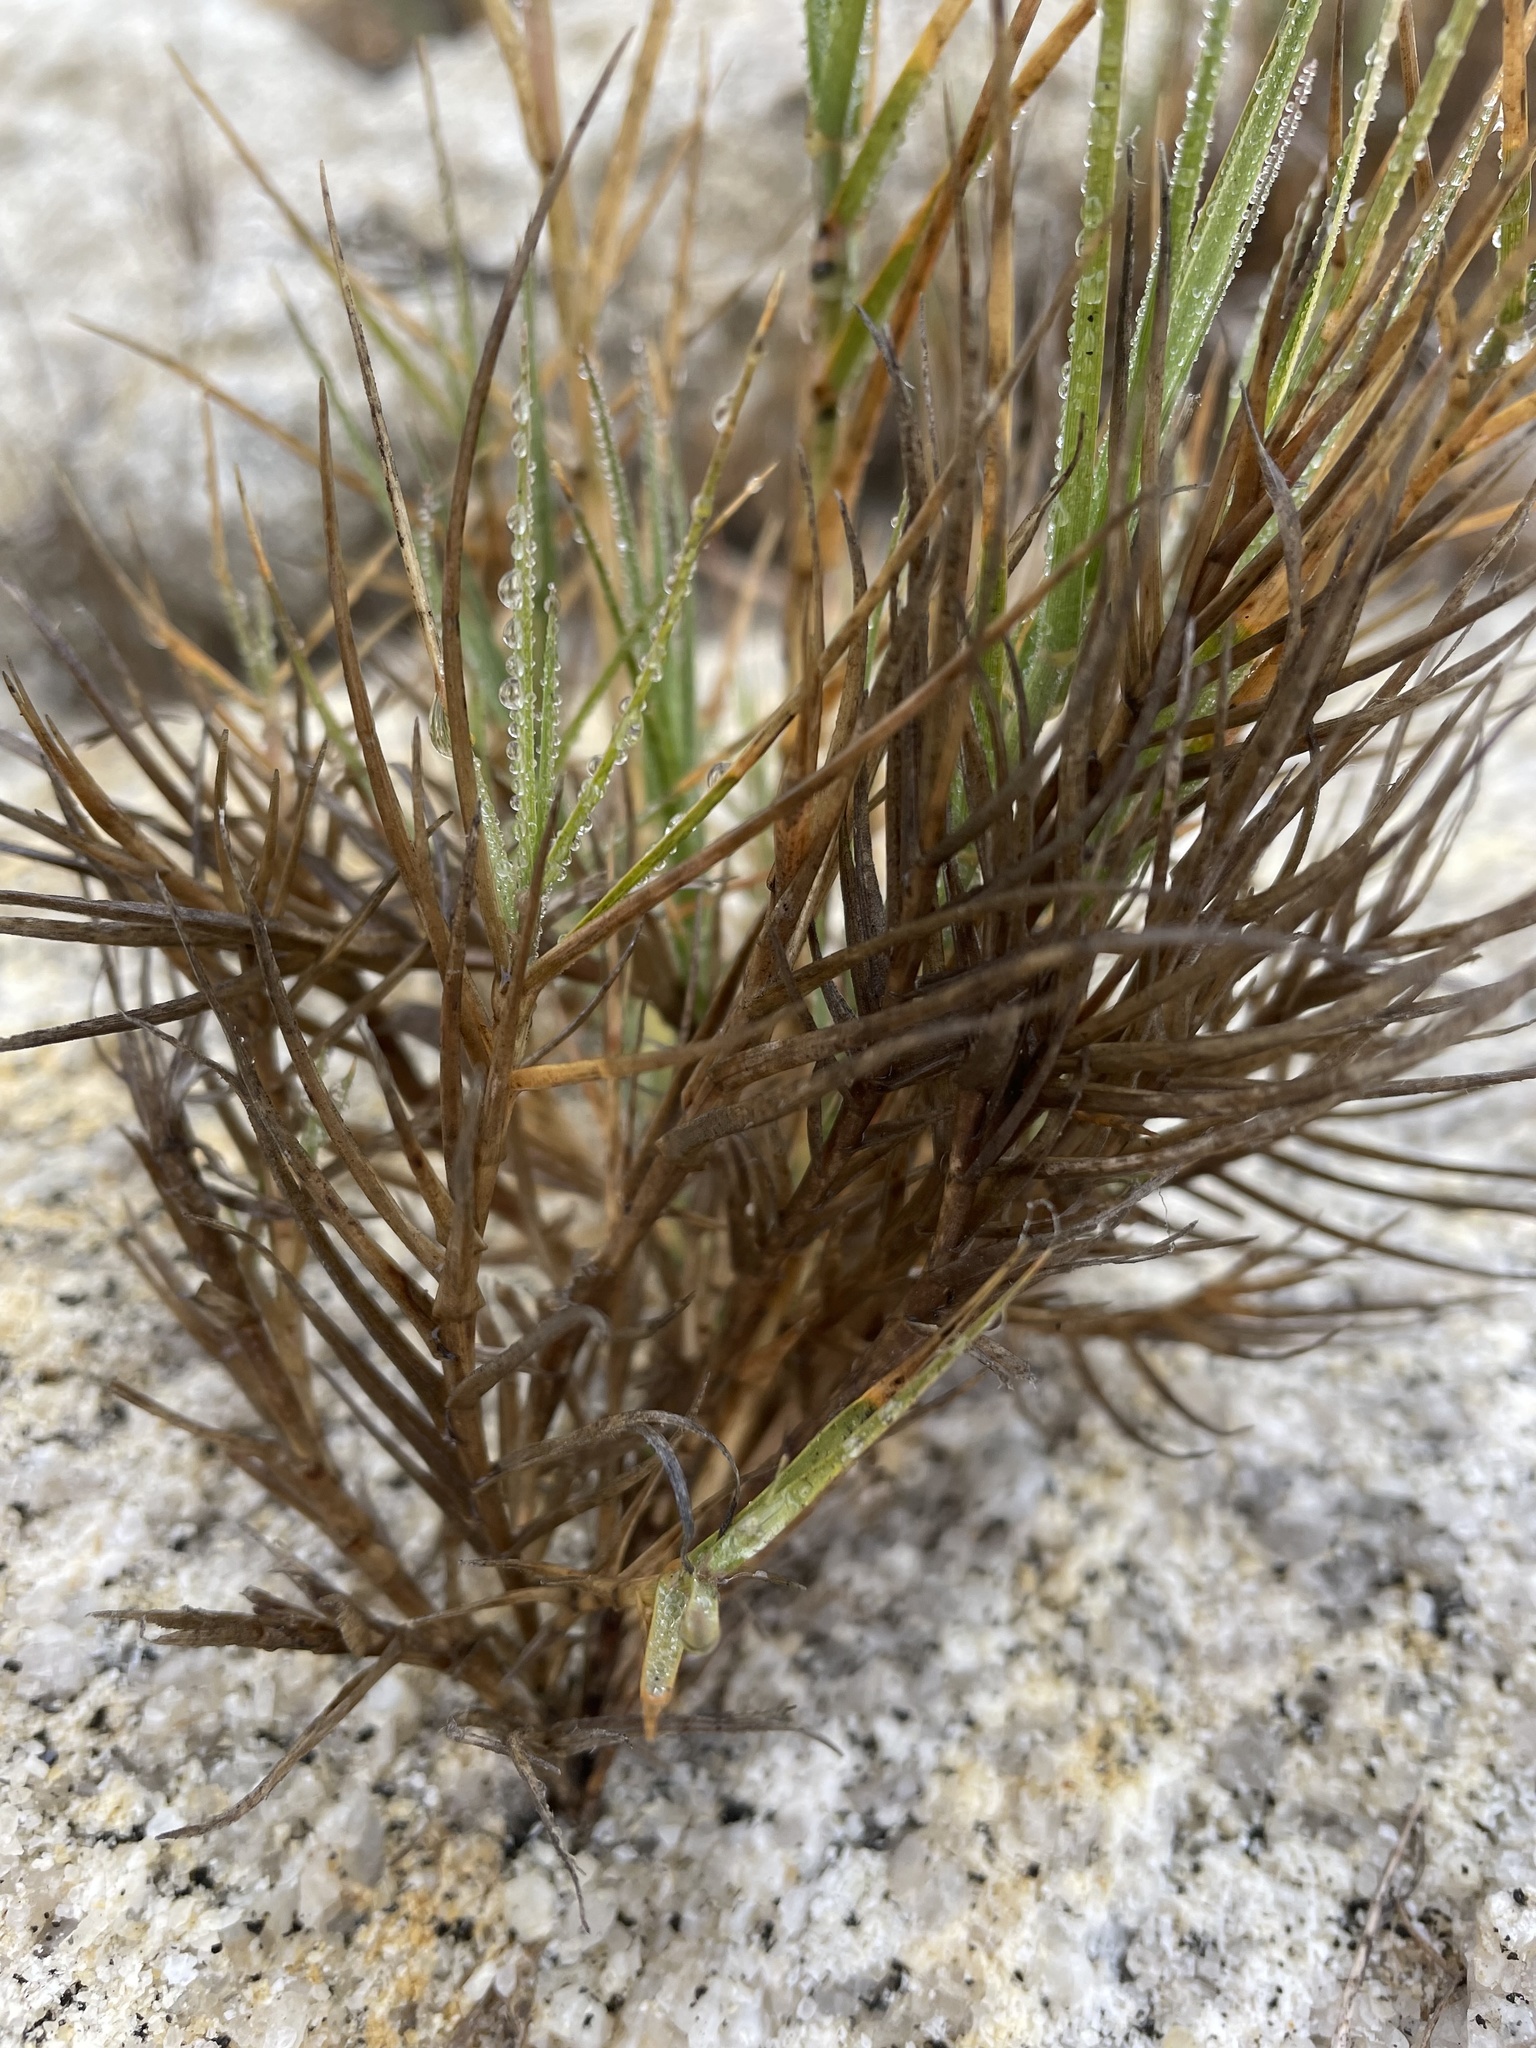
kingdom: Plantae
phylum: Tracheophyta
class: Liliopsida
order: Poales
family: Poaceae
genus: Distichlis
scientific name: Distichlis spicata
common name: Saltgrass
